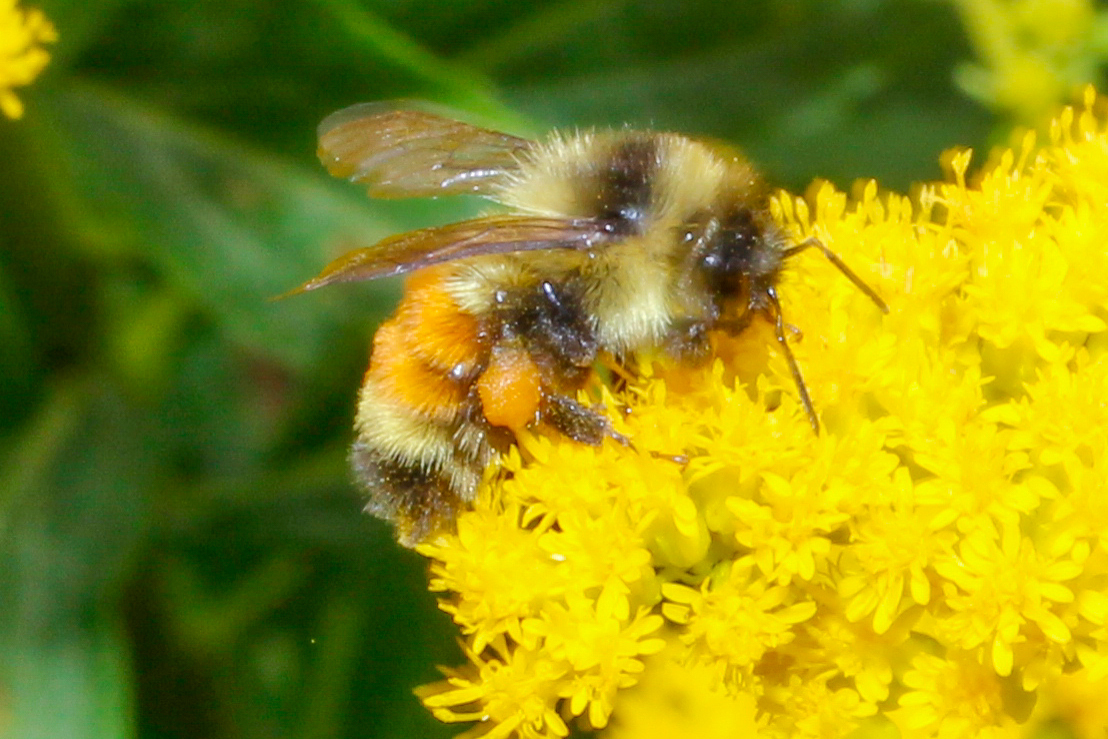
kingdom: Animalia
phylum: Arthropoda
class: Insecta
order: Hymenoptera
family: Apidae
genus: Bombus
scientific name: Bombus ternarius
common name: Tri-colored bumble bee
